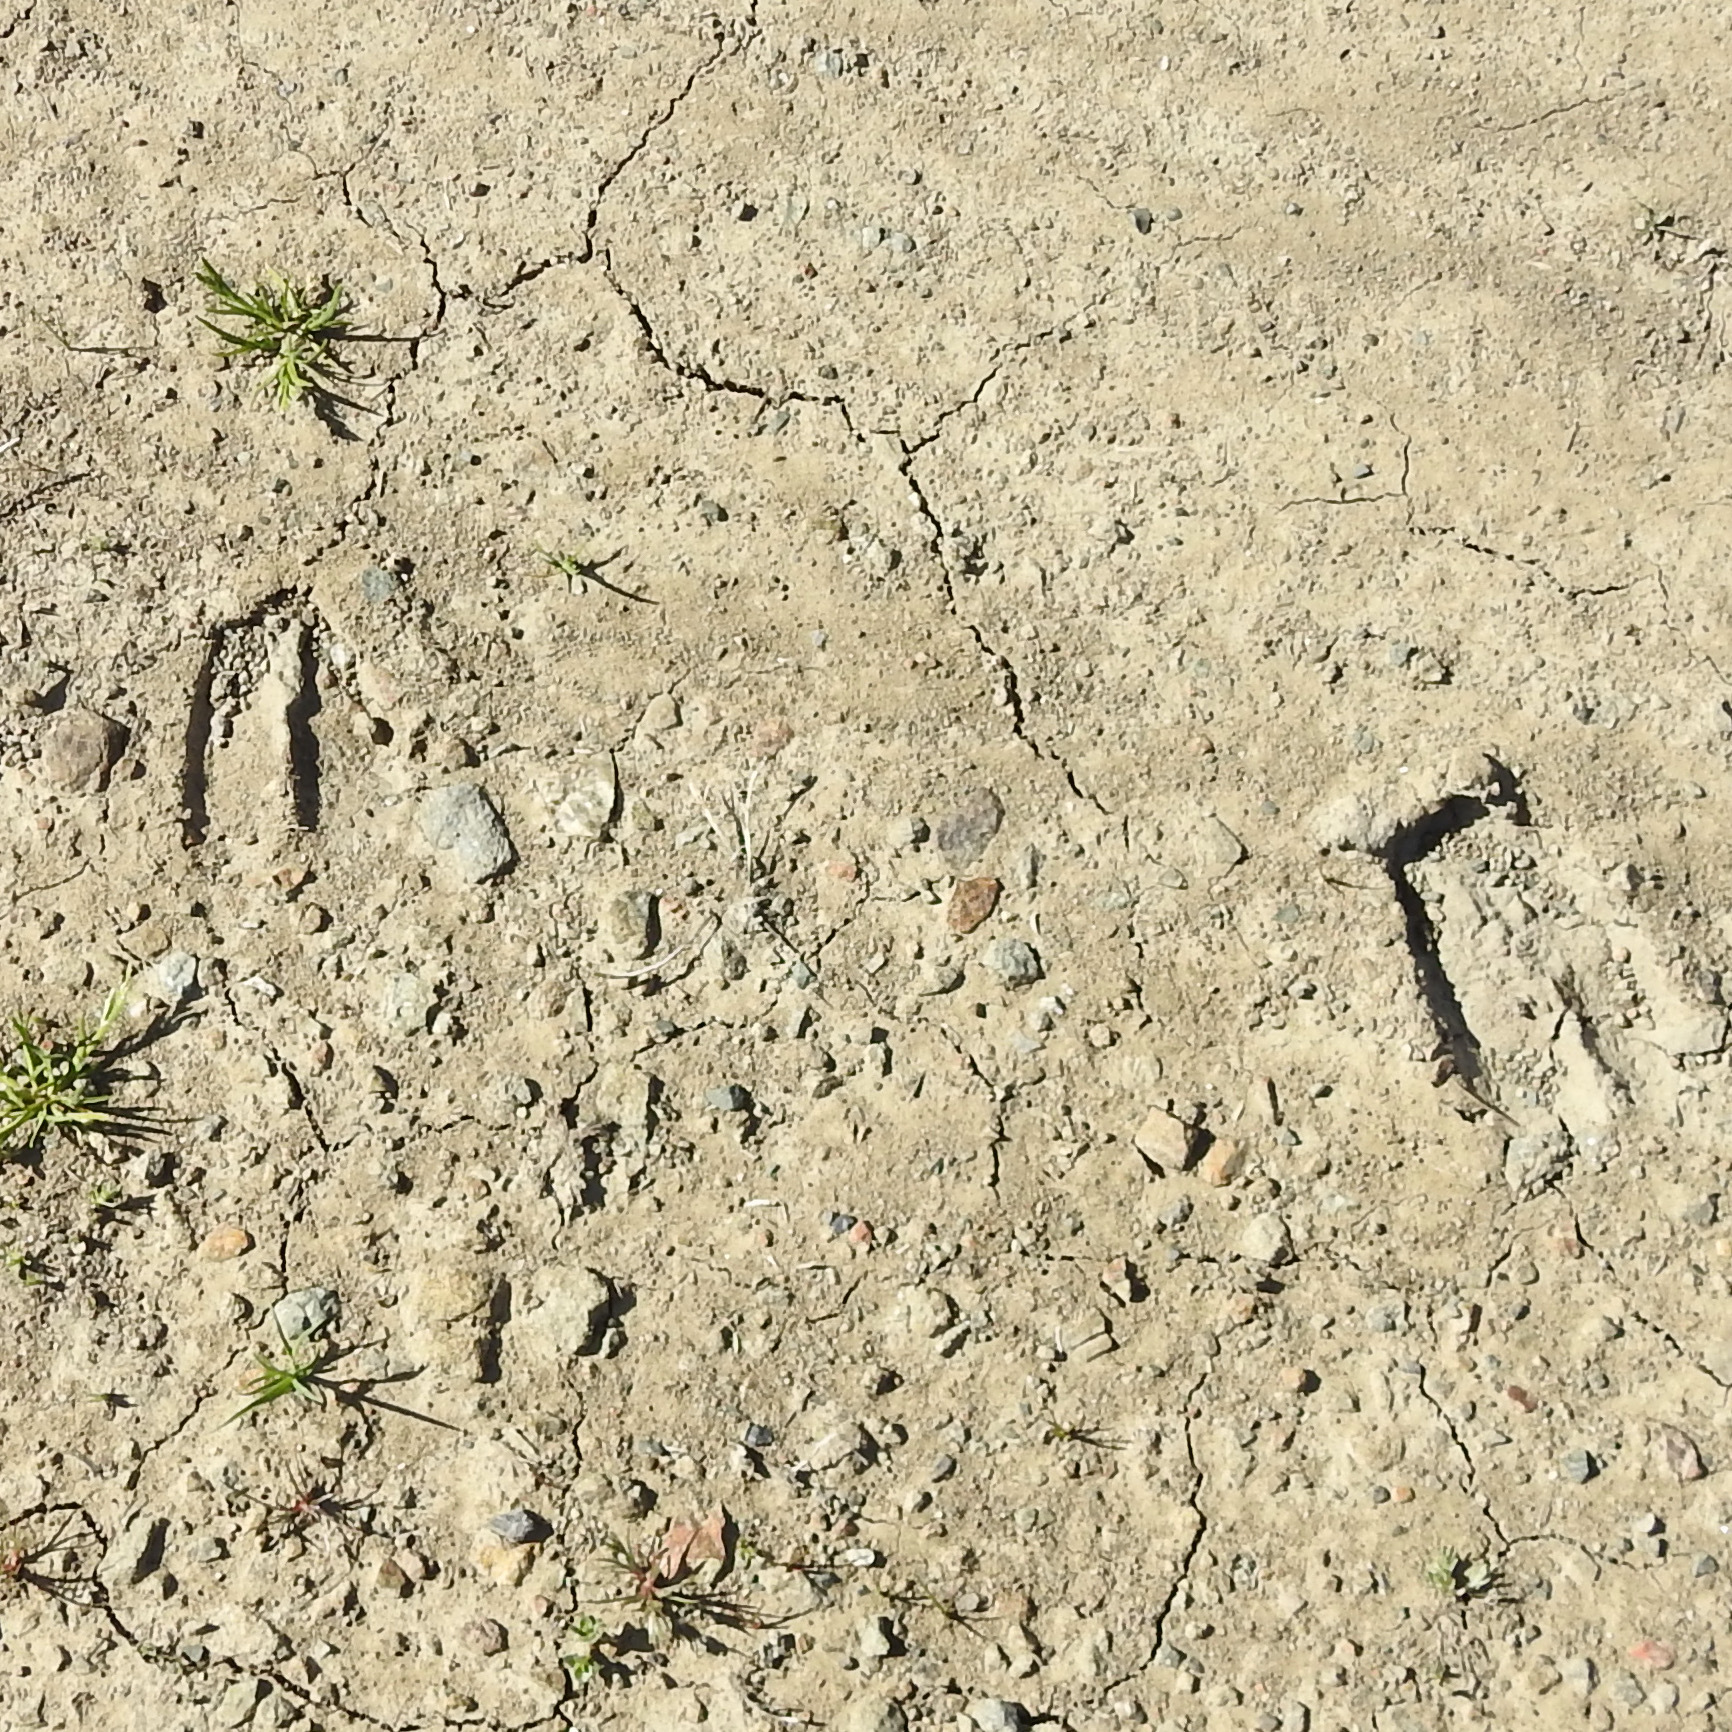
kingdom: Animalia
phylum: Chordata
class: Mammalia
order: Artiodactyla
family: Cervidae
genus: Odocoileus
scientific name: Odocoileus hemionus
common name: Mule deer
